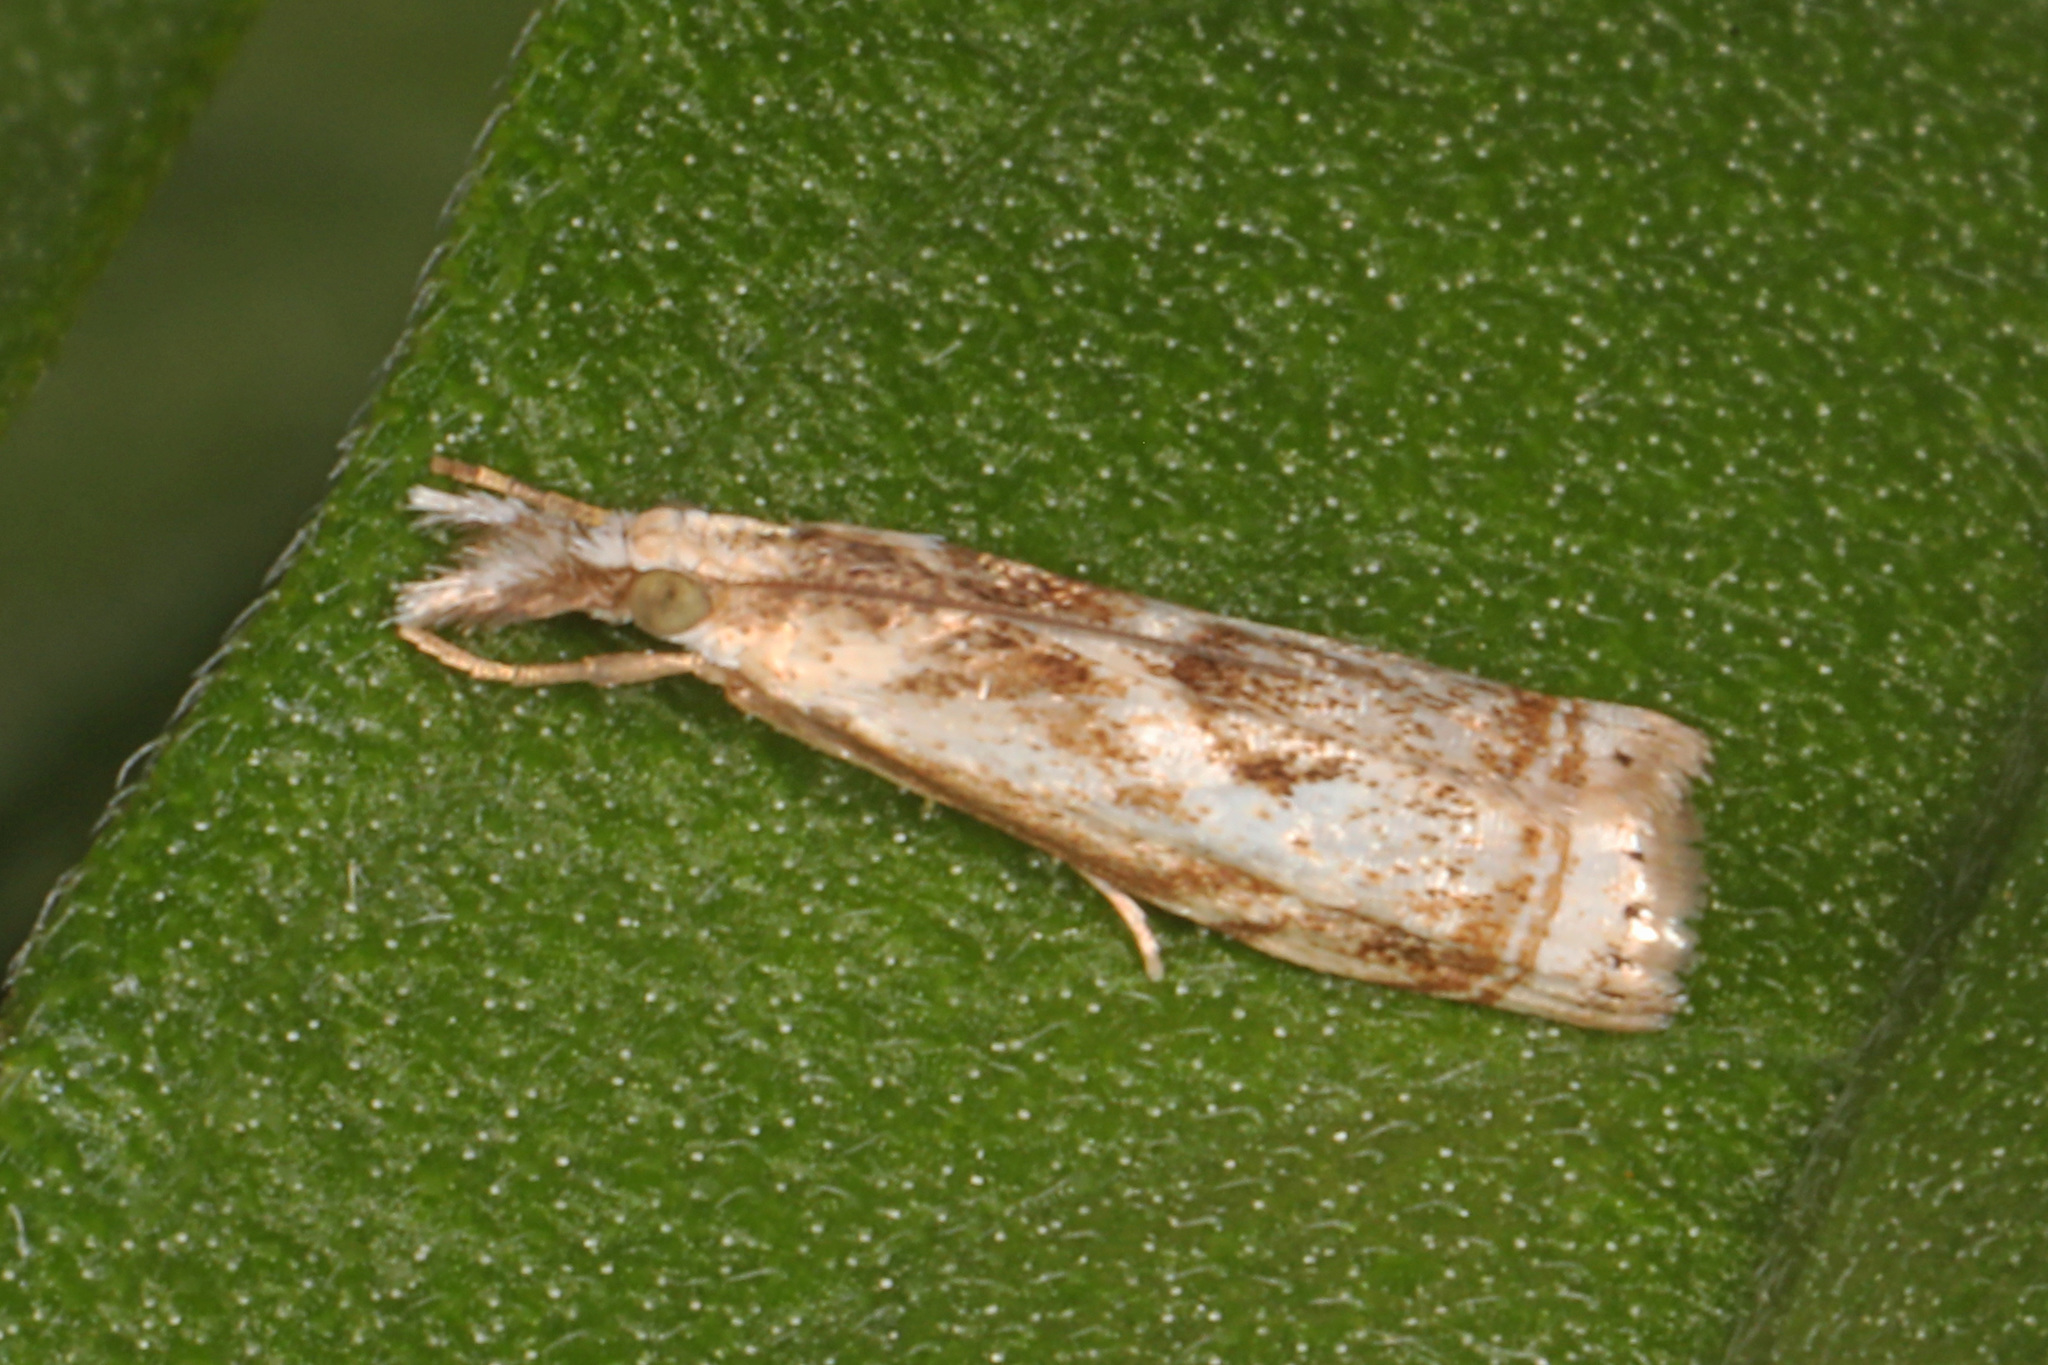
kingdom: Animalia
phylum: Arthropoda
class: Insecta
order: Lepidoptera
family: Crambidae
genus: Microcrambus
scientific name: Microcrambus elegans
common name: Elegant grass-veneer
